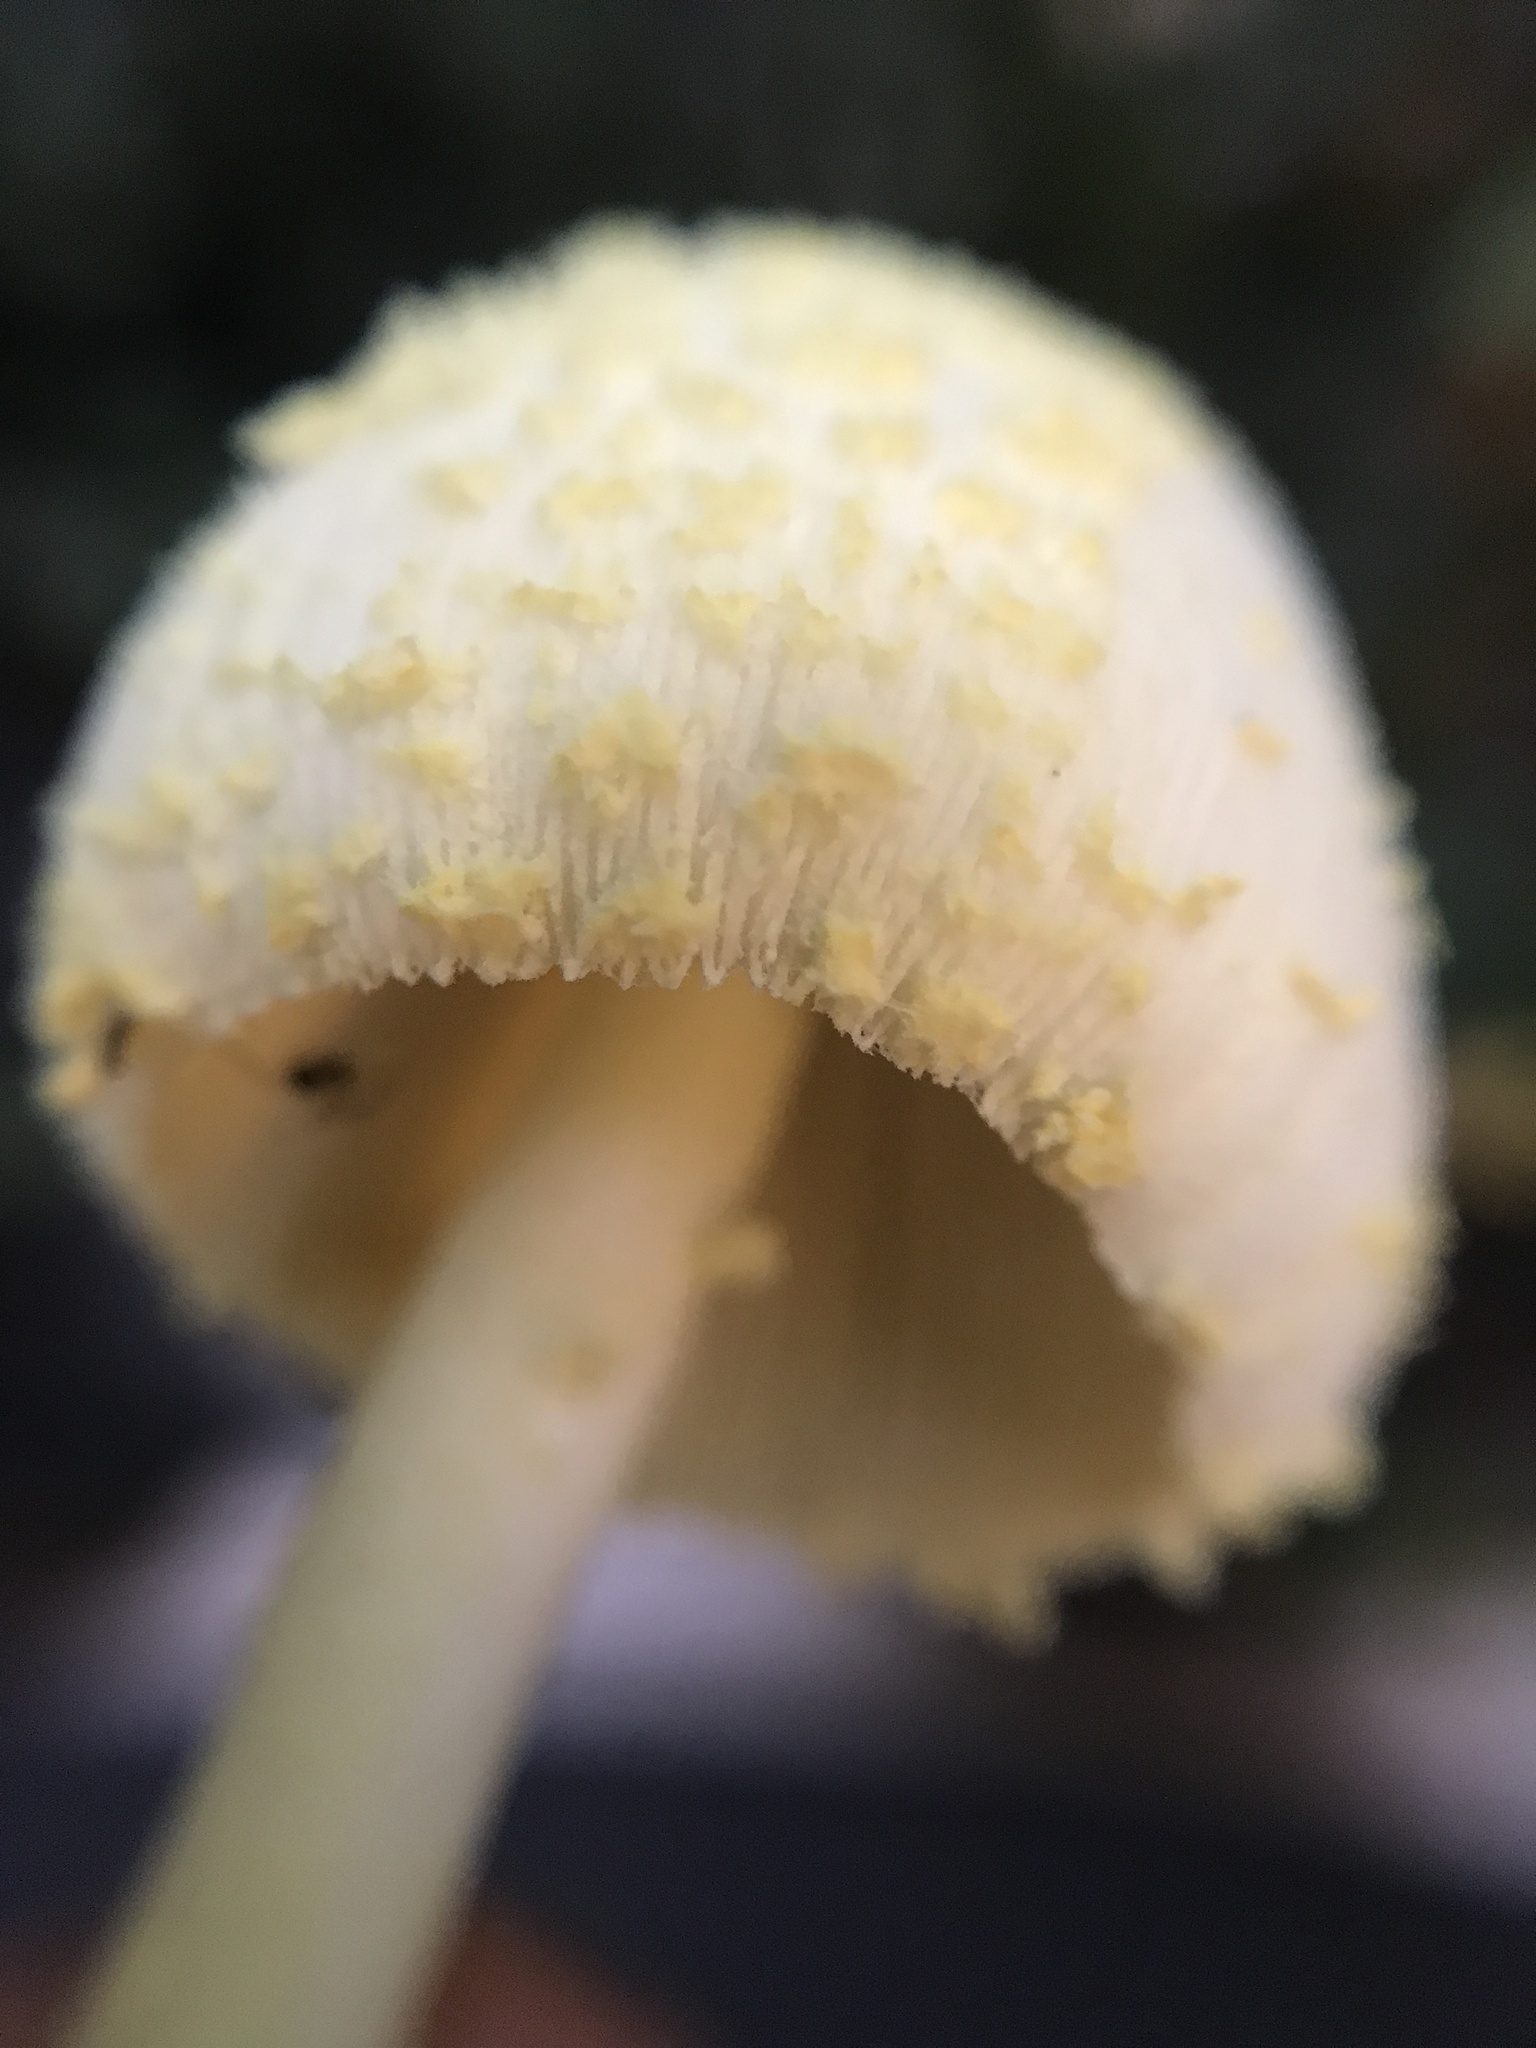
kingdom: Fungi
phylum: Basidiomycota
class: Agaricomycetes
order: Agaricales
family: Agaricaceae
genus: Leucocoprinus
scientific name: Leucocoprinus birnbaumii
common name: Plantpot dapperling
